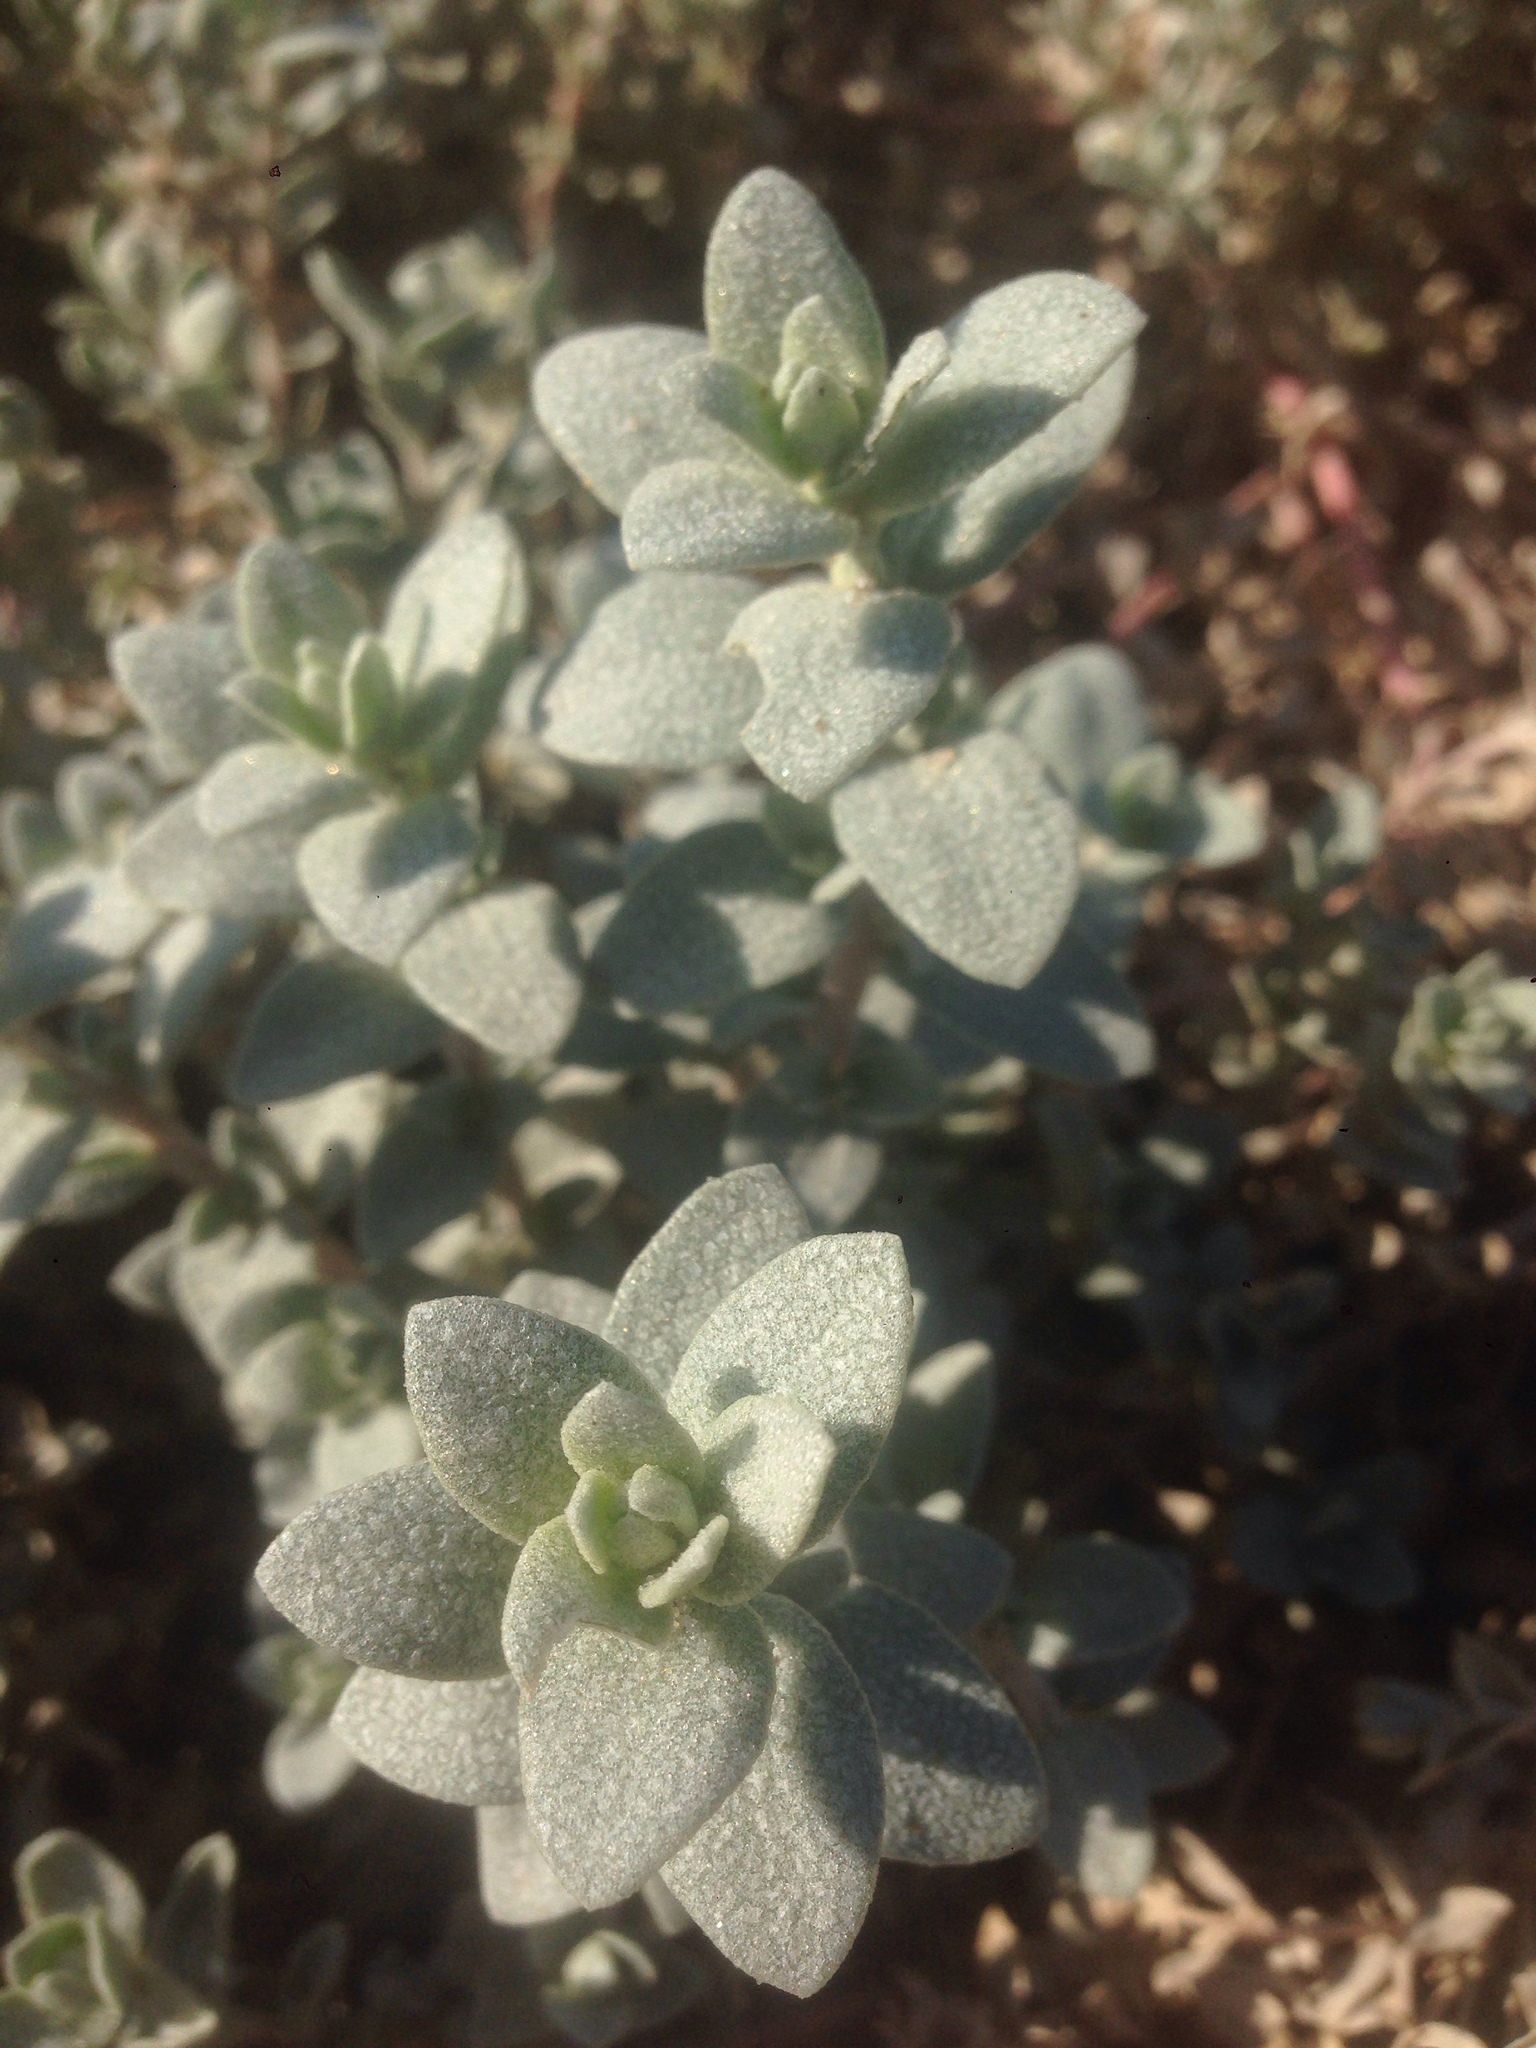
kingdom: Plantae
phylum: Tracheophyta
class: Magnoliopsida
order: Caryophyllales
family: Amaranthaceae
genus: Atriplex
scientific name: Atriplex leucophylla
